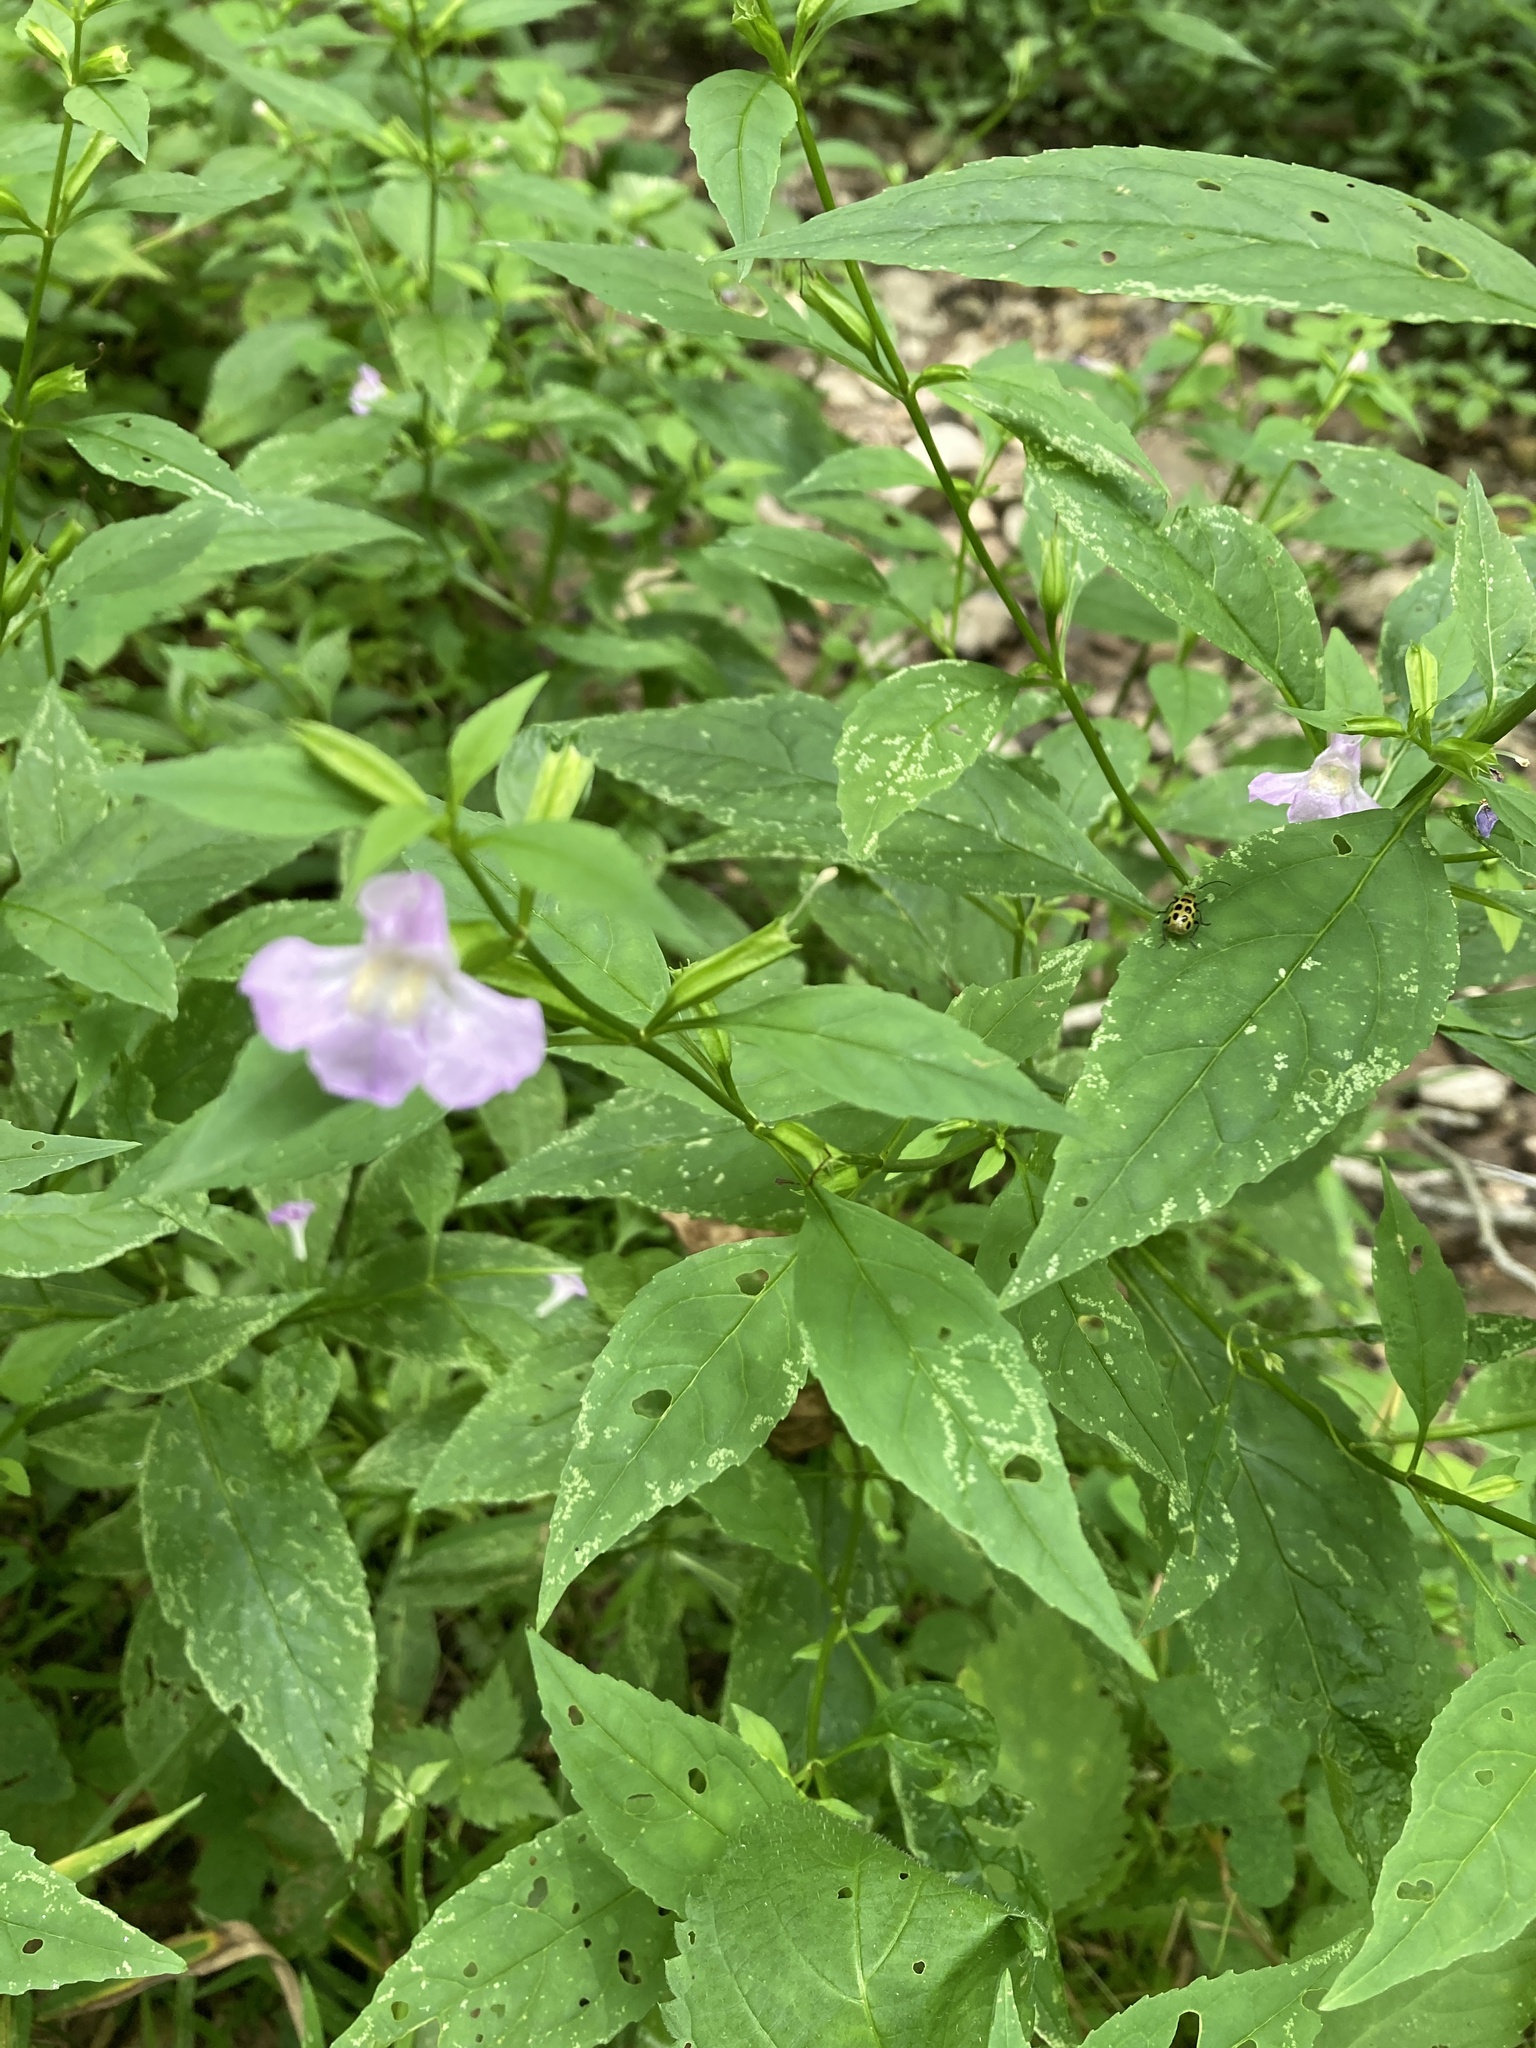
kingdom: Plantae
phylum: Tracheophyta
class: Magnoliopsida
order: Lamiales
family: Phrymaceae
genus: Mimulus
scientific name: Mimulus alatus
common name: Sharp-wing monkey-flower
